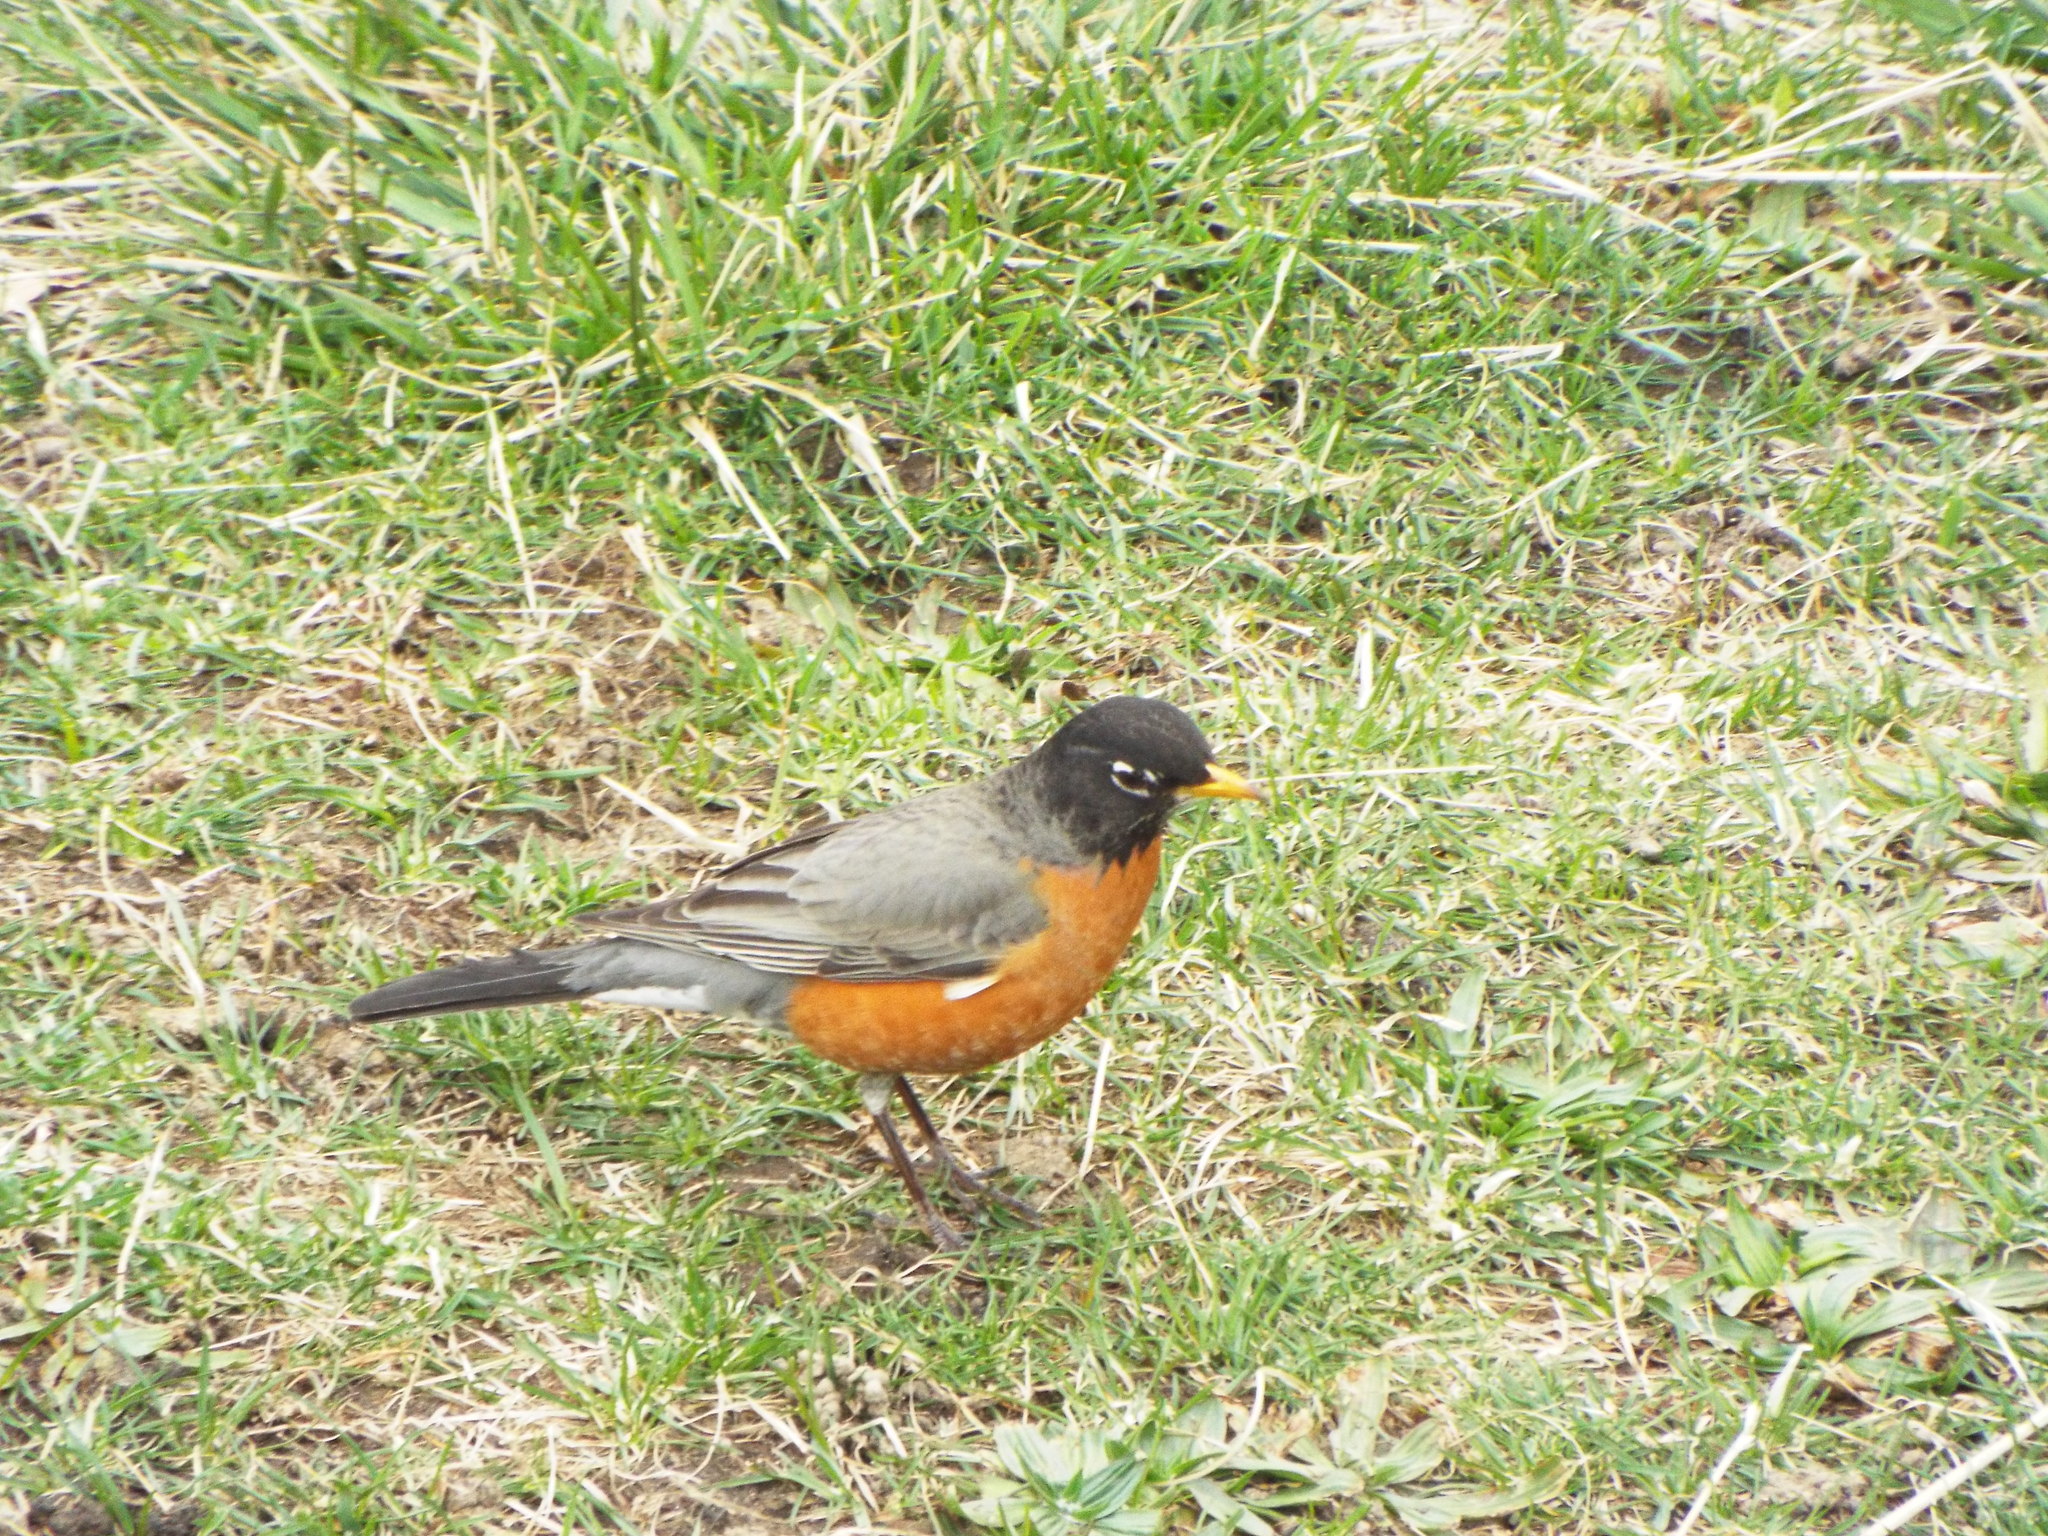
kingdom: Animalia
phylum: Chordata
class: Aves
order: Passeriformes
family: Turdidae
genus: Turdus
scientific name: Turdus migratorius
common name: American robin
